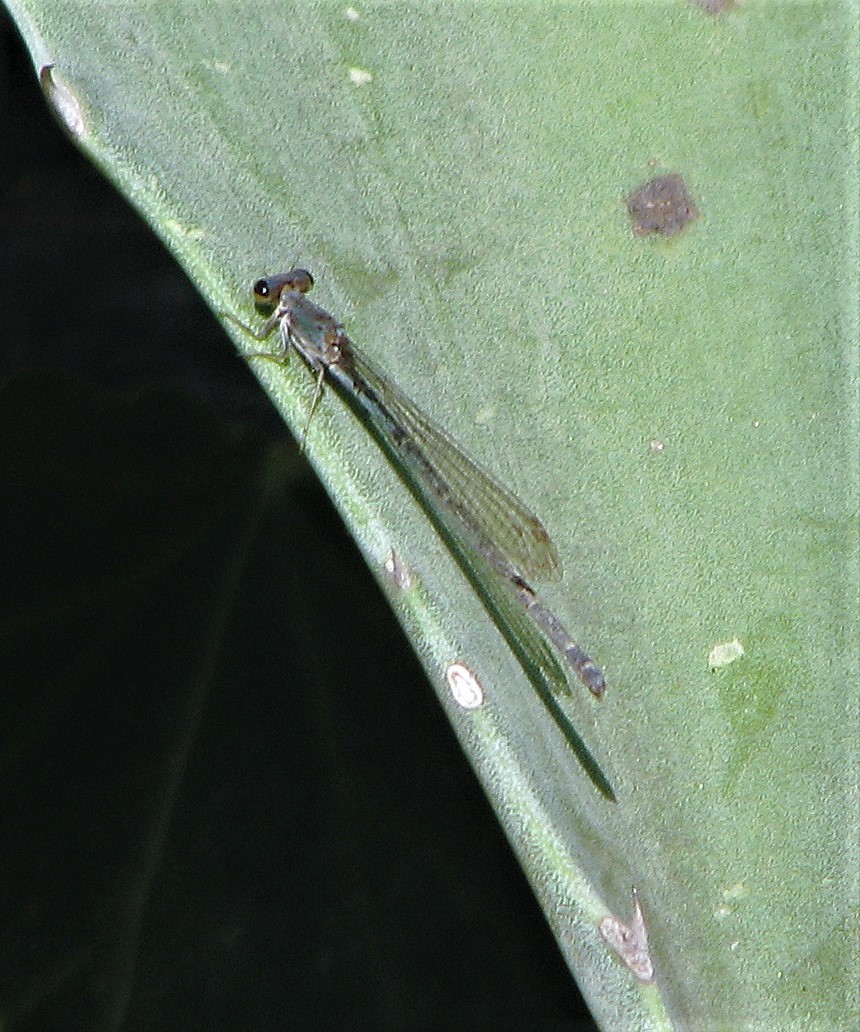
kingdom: Animalia
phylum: Arthropoda
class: Insecta
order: Odonata
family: Coenagrionidae
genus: Oxyagrion
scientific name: Oxyagrion ablutum
